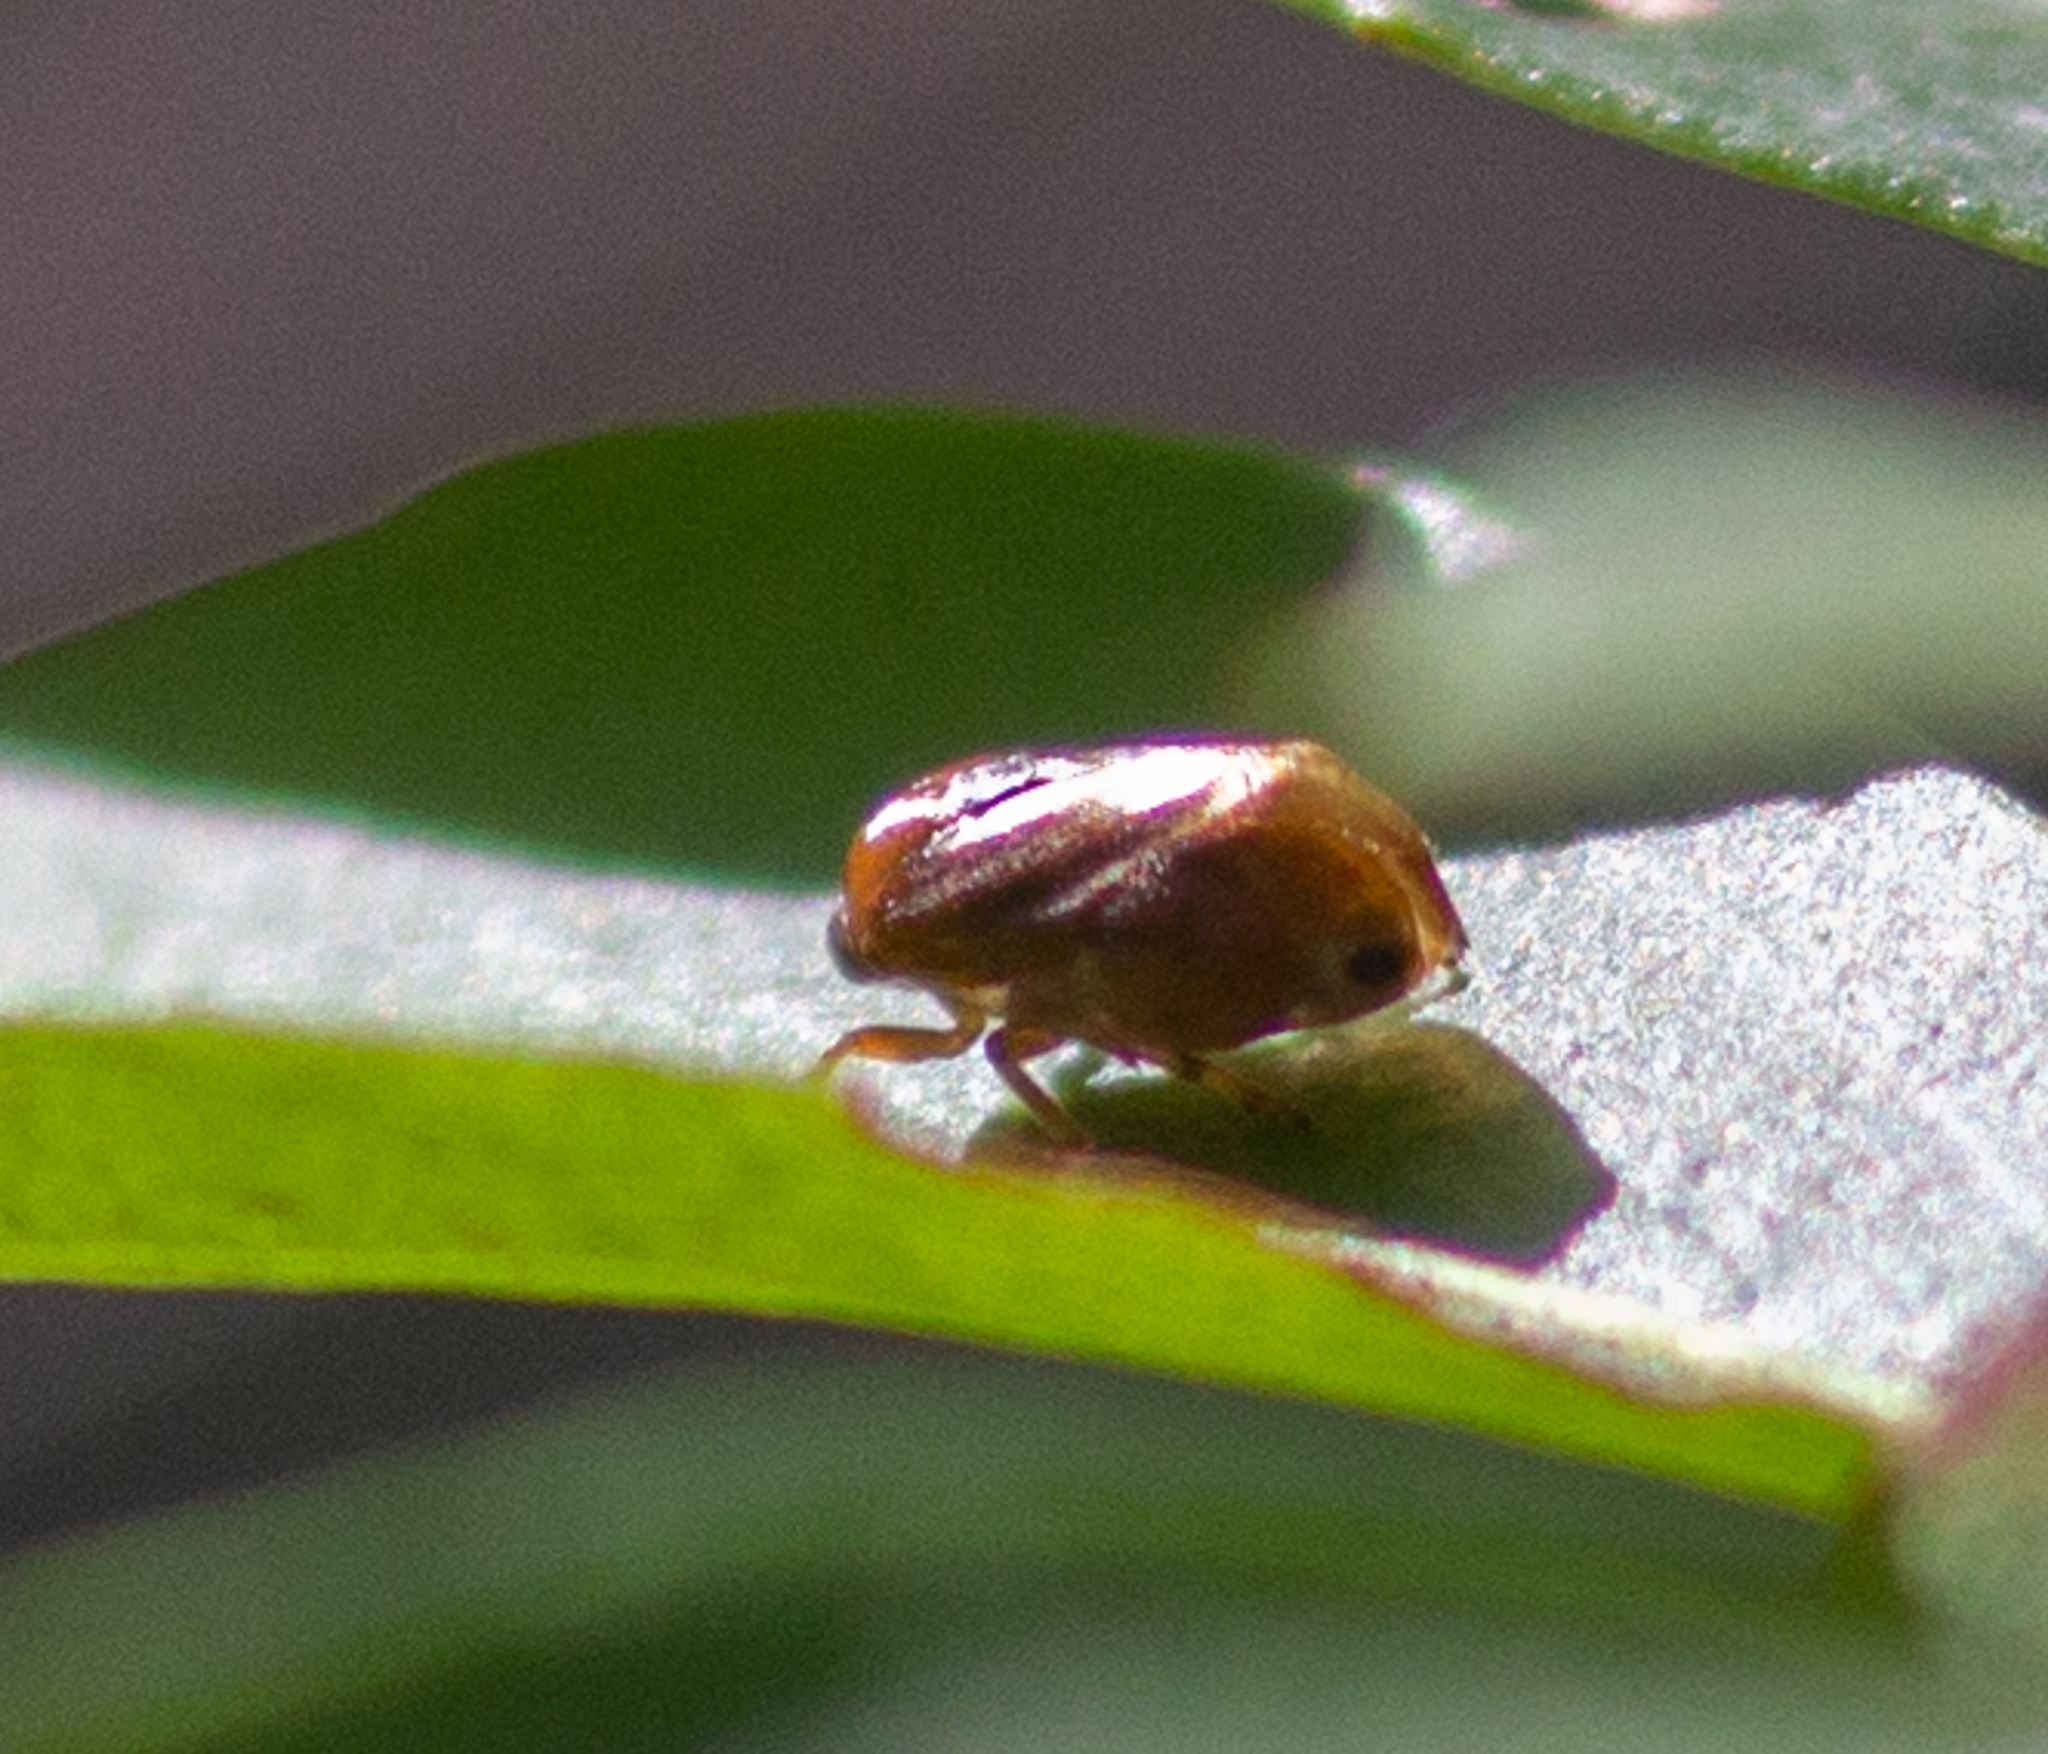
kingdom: Animalia
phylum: Arthropoda
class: Insecta
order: Hemiptera
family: Clastopteridae
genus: Clastoptera
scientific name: Clastoptera testacea
